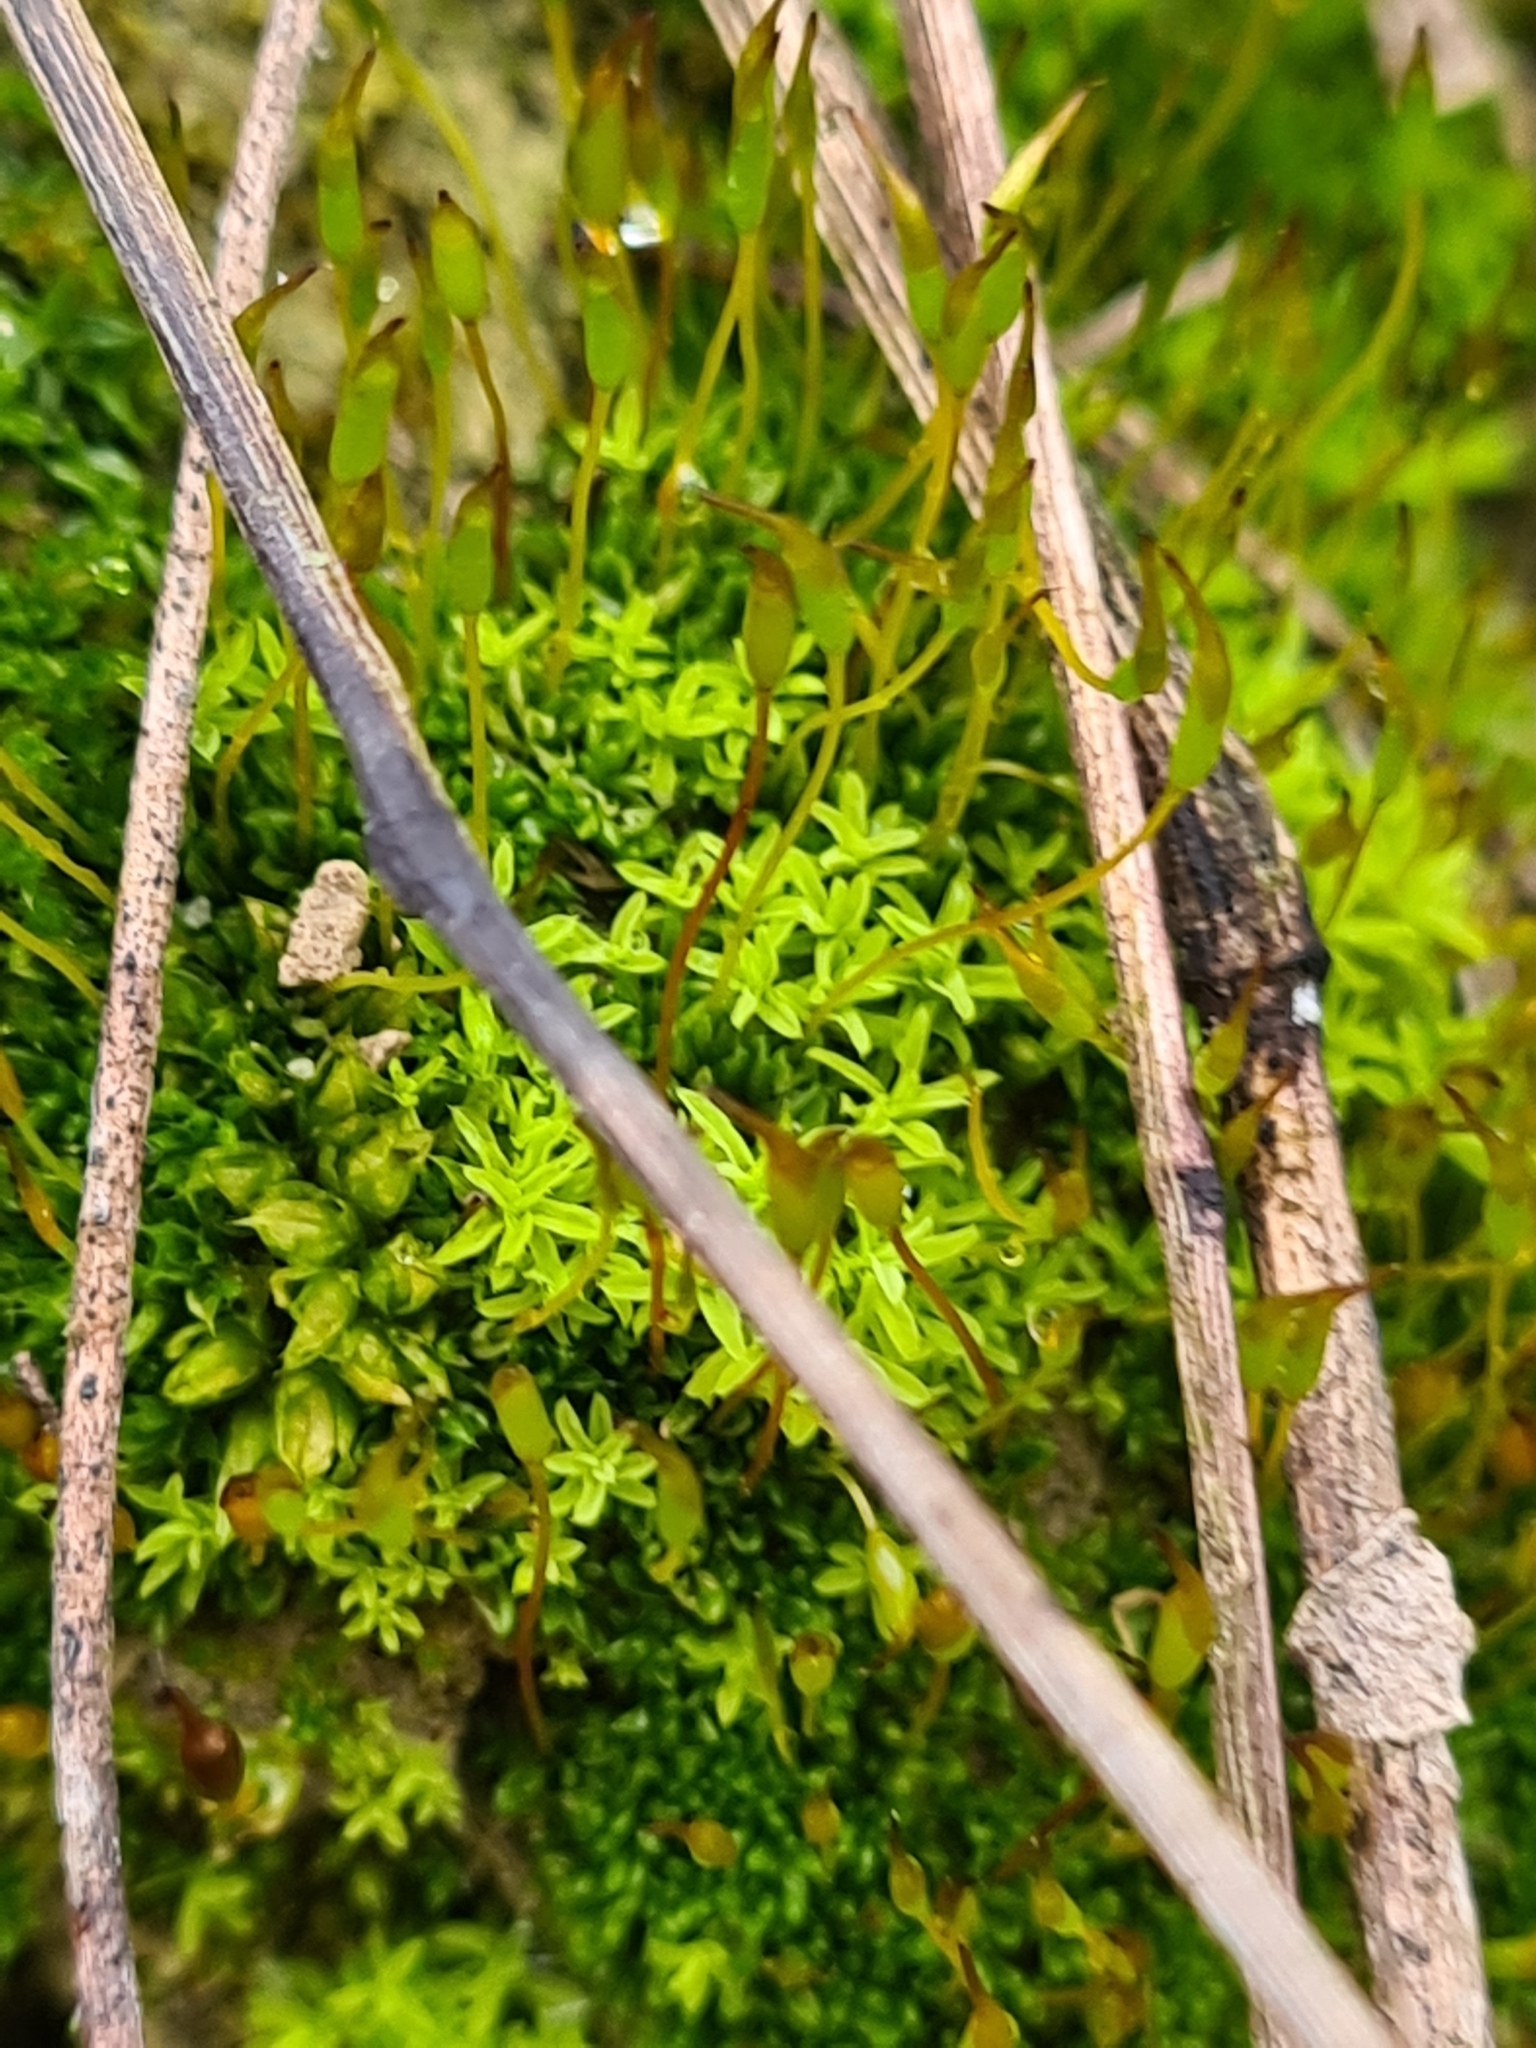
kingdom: Plantae
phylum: Bryophyta
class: Bryopsida
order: Pottiales
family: Pottiaceae
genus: Barbula
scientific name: Barbula unguiculata
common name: Prickly beard moss
